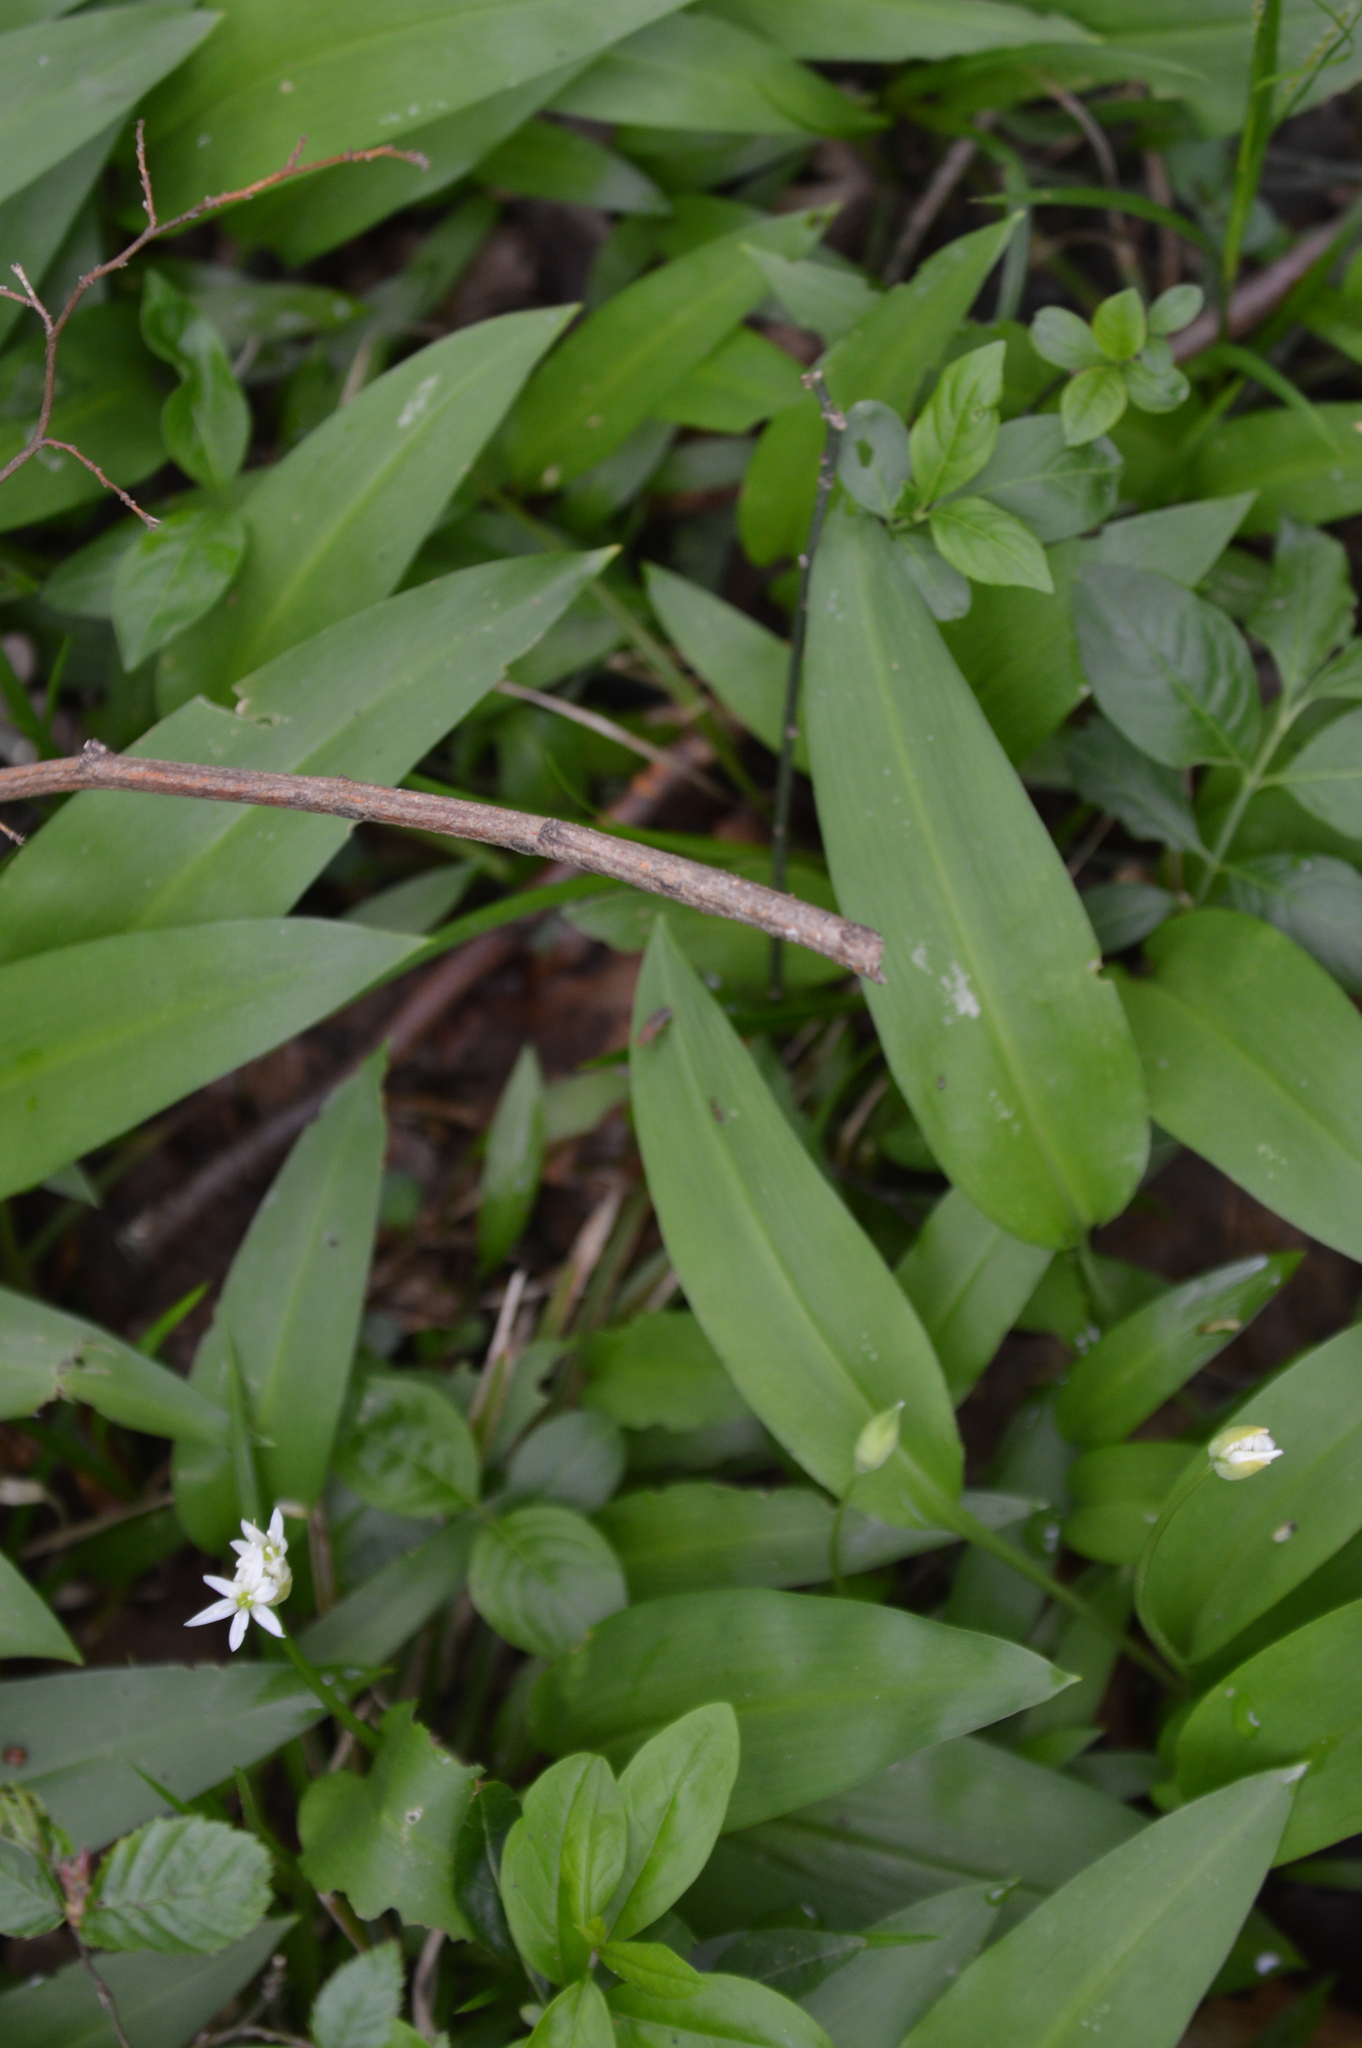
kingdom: Plantae
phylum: Tracheophyta
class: Liliopsida
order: Asparagales
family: Amaryllidaceae
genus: Allium
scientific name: Allium ursinum
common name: Ramsons
